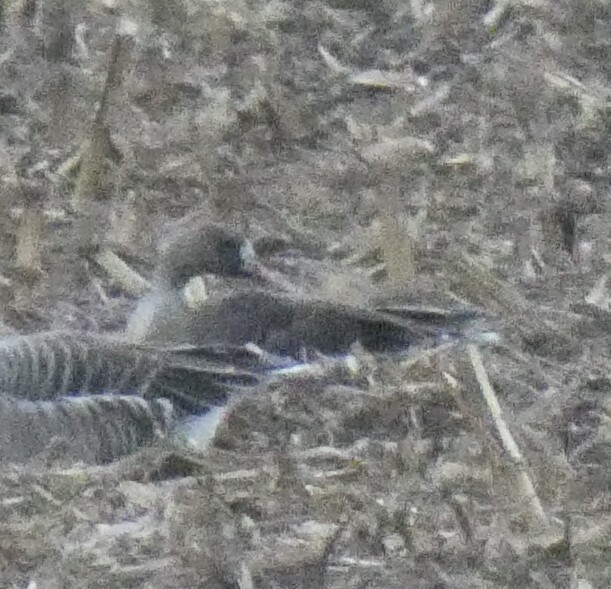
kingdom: Animalia
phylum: Chordata
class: Aves
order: Anseriformes
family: Anatidae
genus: Anser
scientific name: Anser albifrons
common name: Greater white-fronted goose
